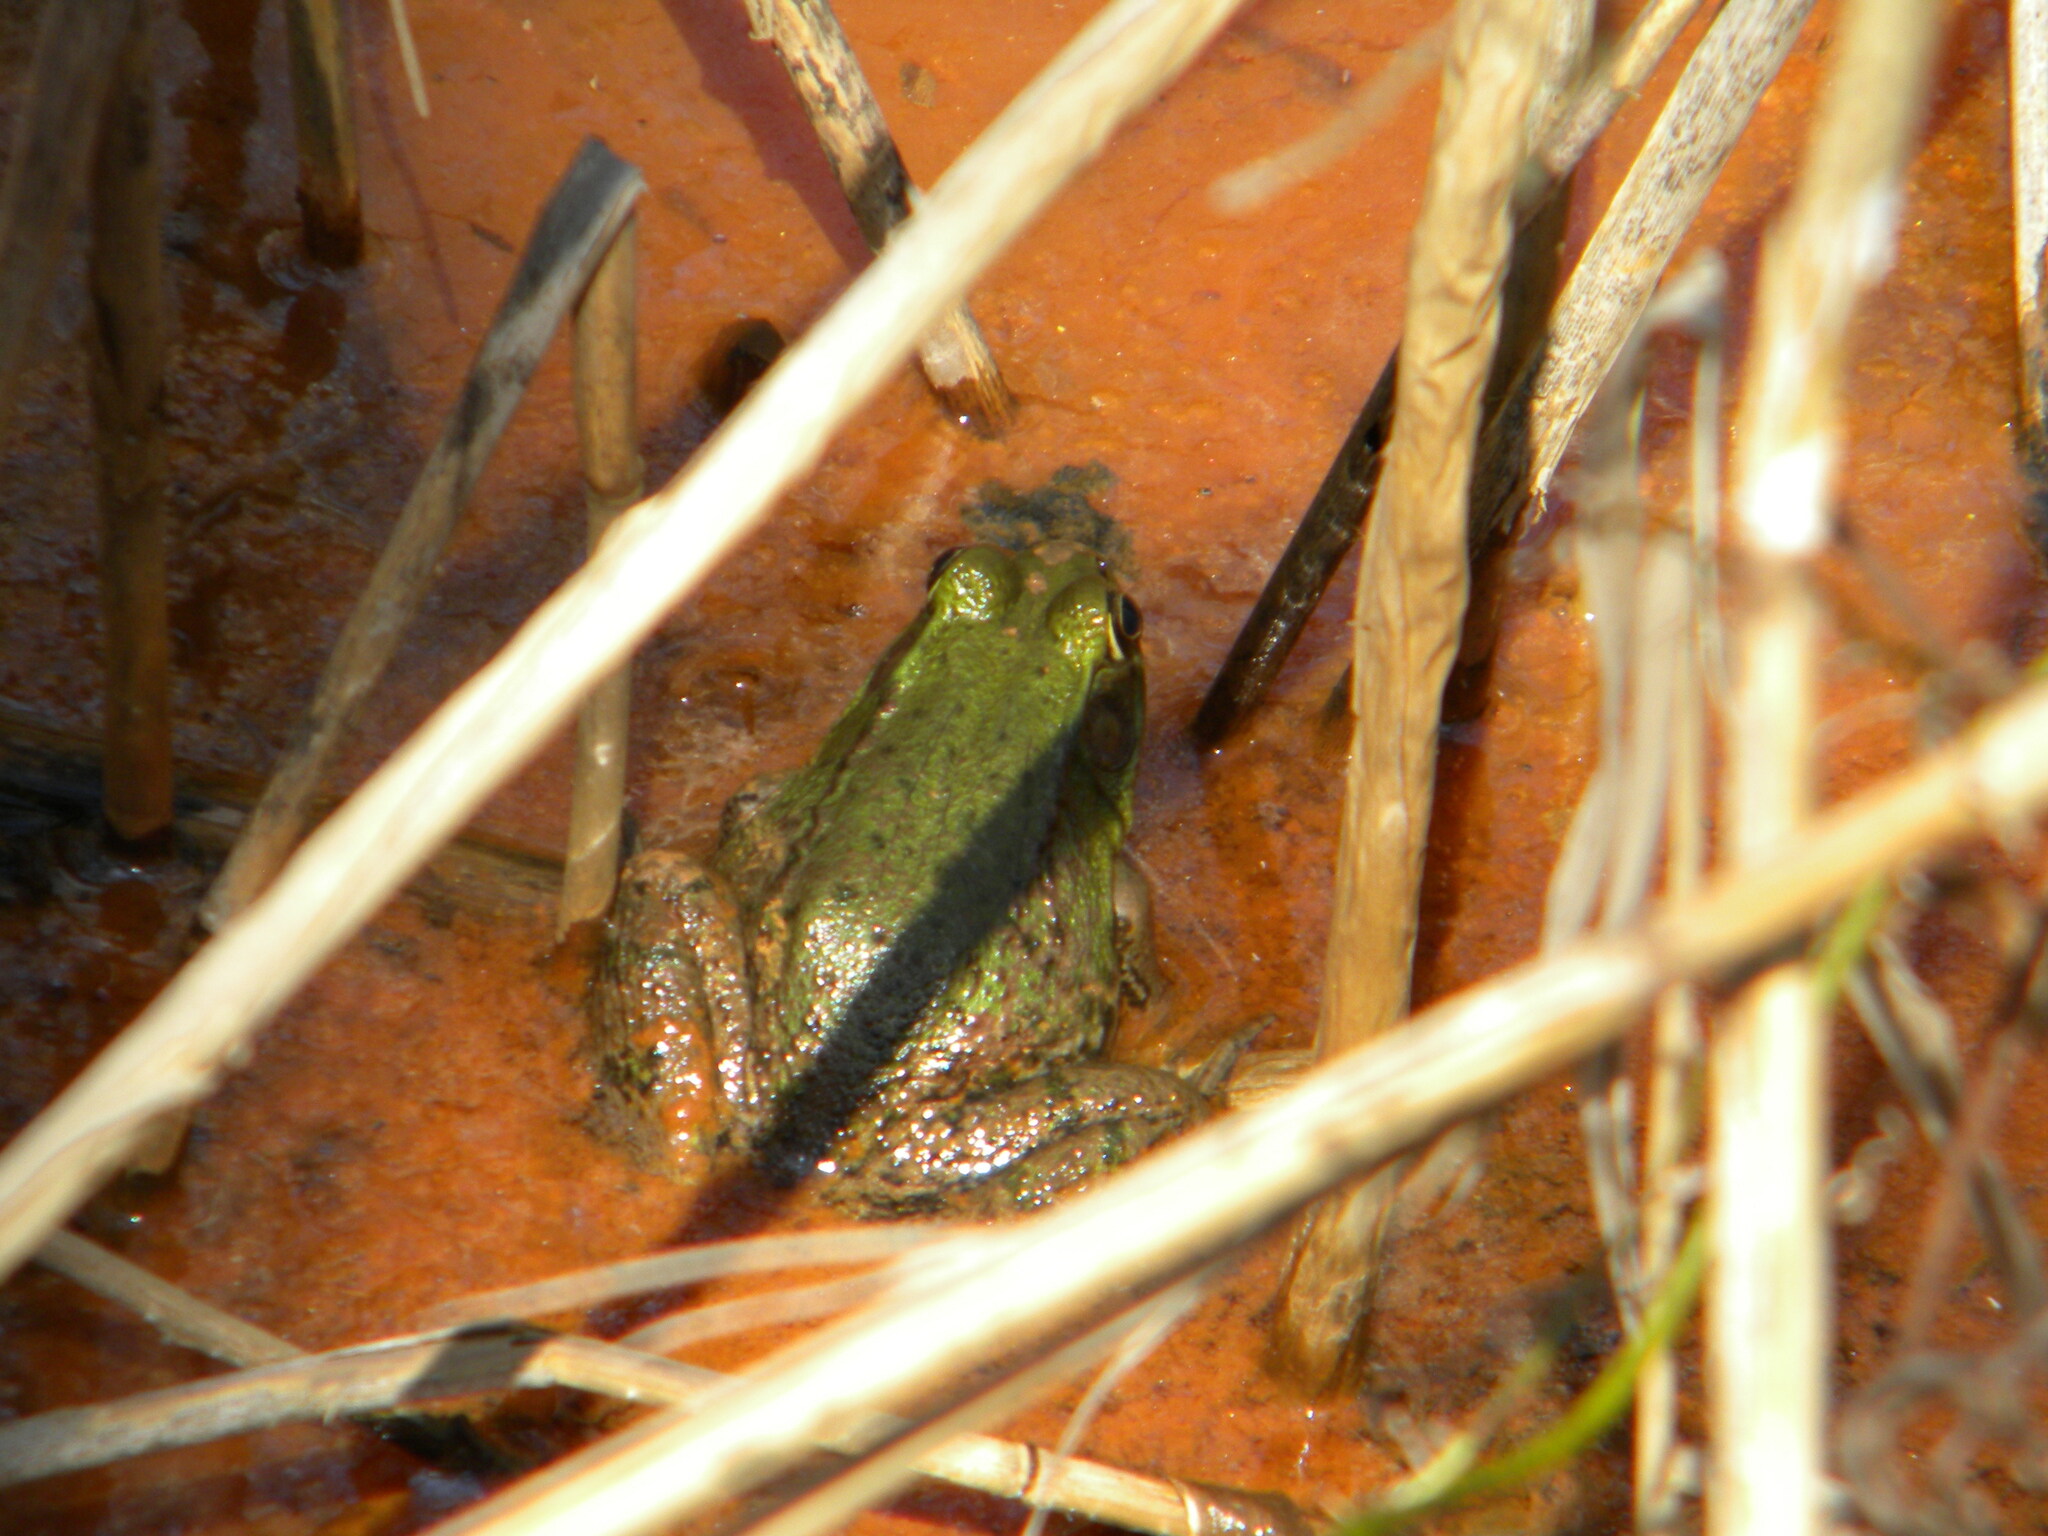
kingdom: Animalia
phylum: Chordata
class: Amphibia
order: Anura
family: Ranidae
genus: Lithobates
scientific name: Lithobates clamitans
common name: Green frog
